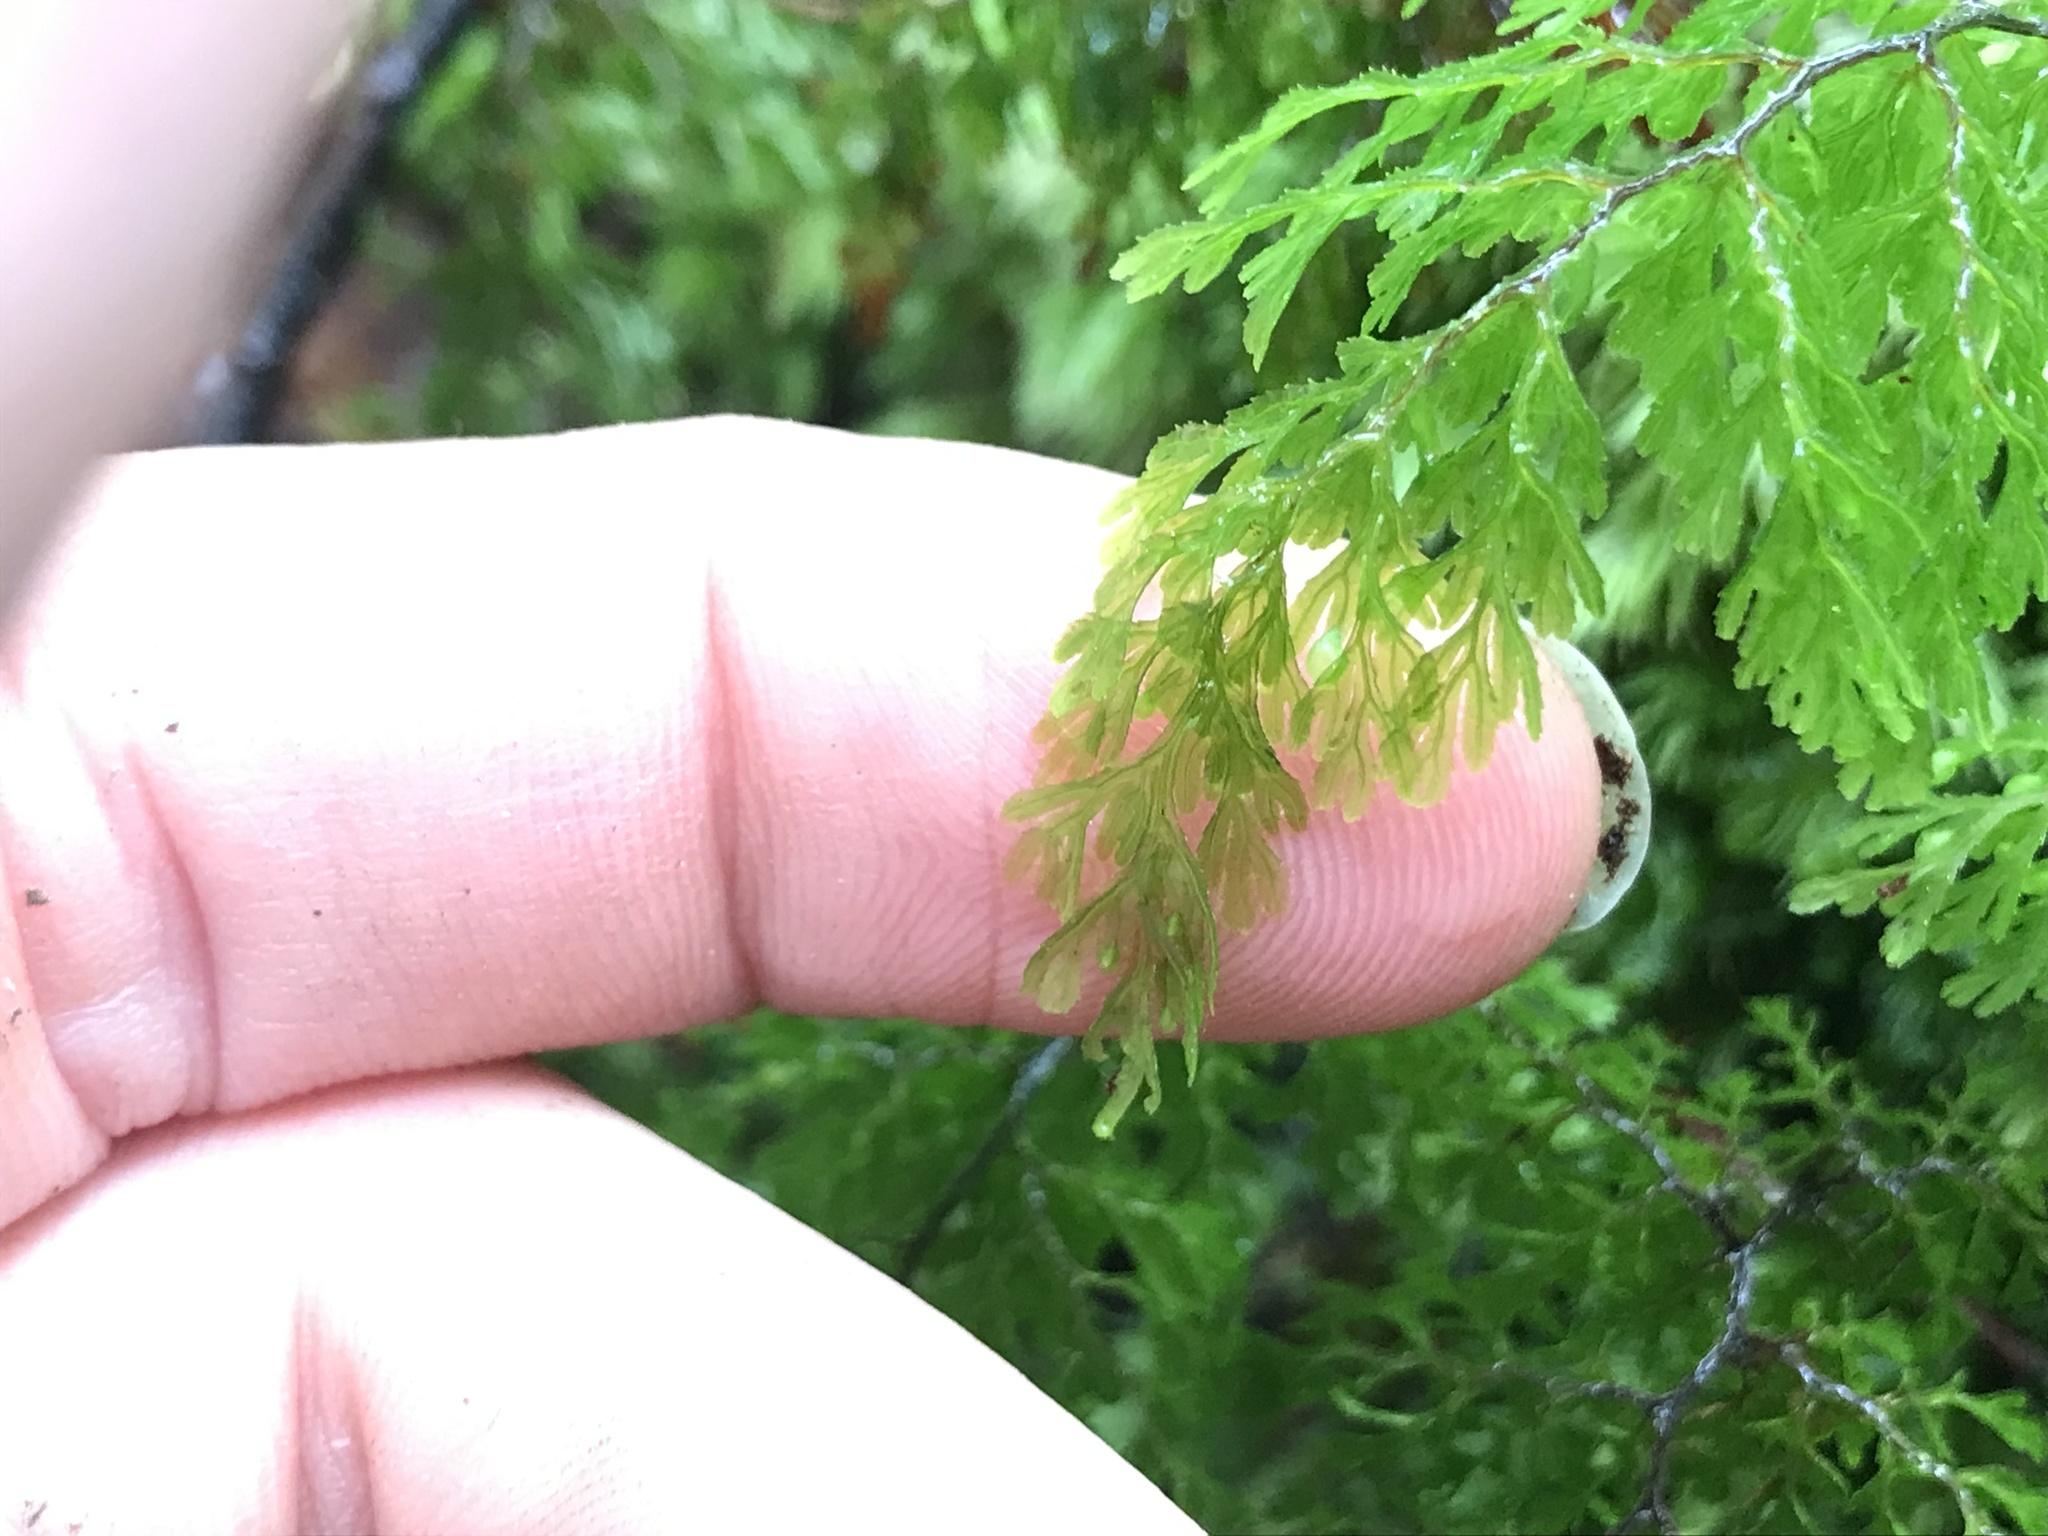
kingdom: Plantae
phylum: Tracheophyta
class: Polypodiopsida
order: Hymenophyllales
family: Hymenophyllaceae
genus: Hymenophyllum
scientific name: Hymenophyllum multifidum
